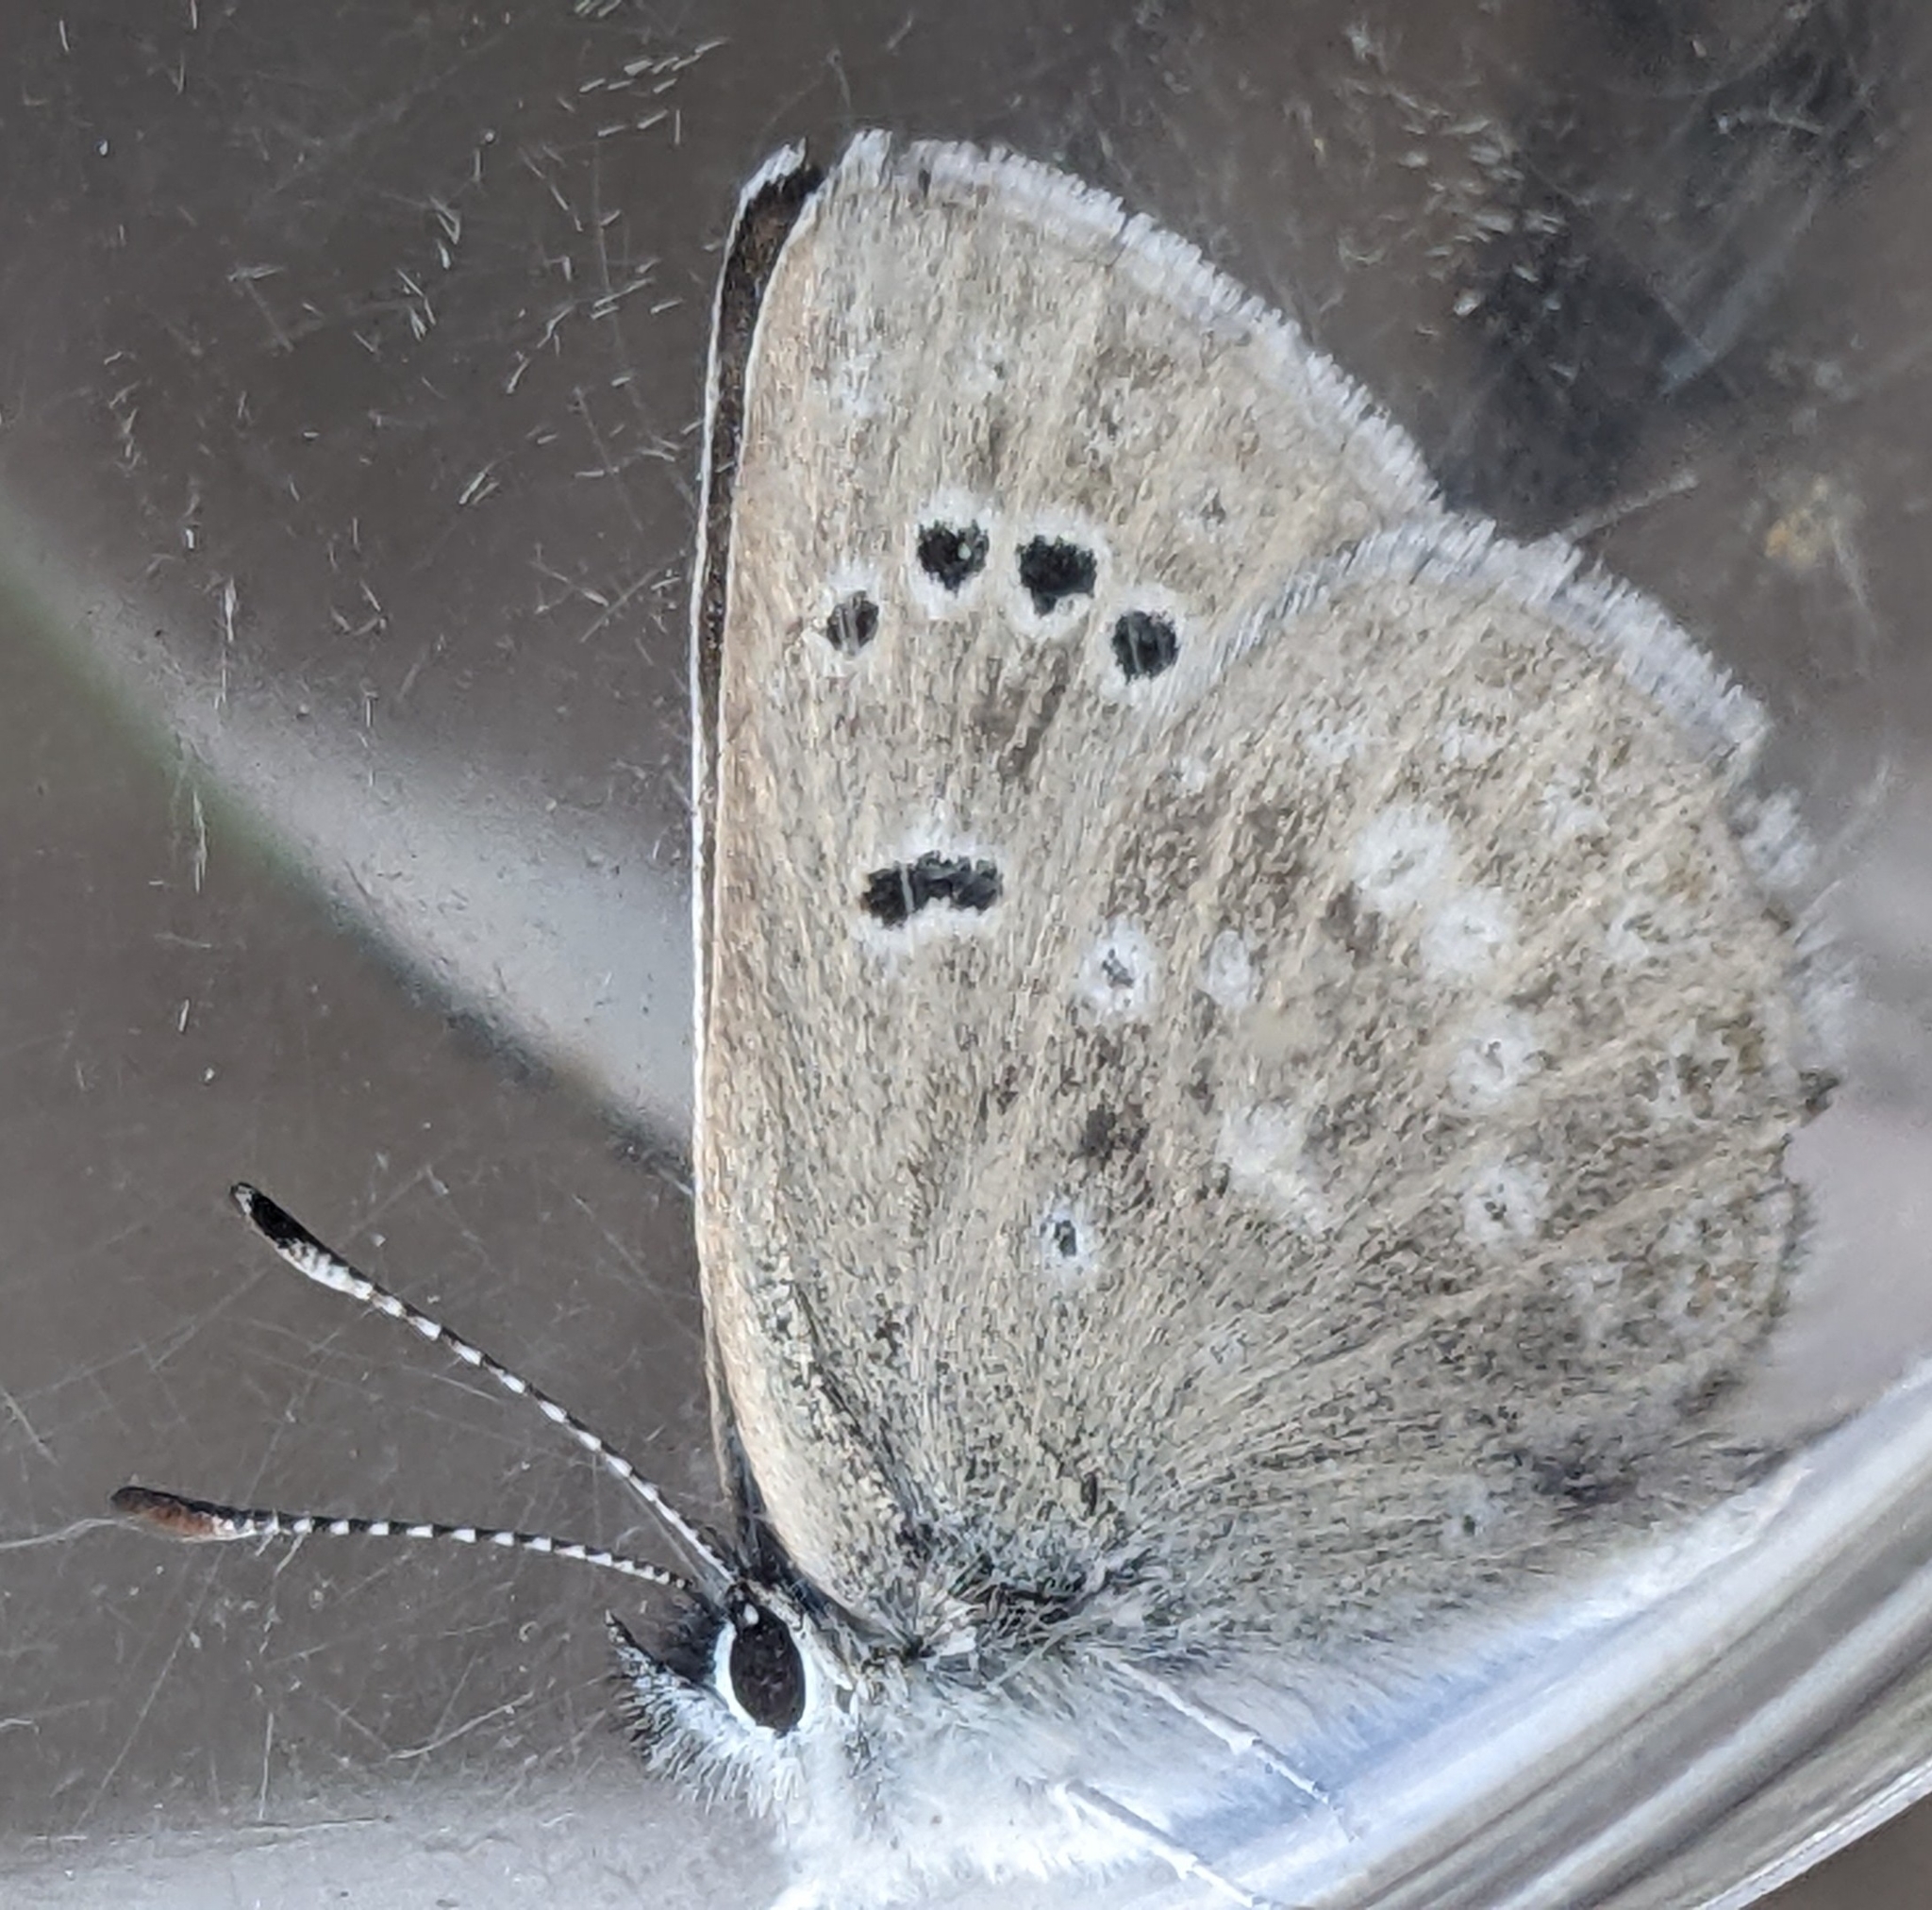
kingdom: Animalia
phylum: Arthropoda
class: Insecta
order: Lepidoptera
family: Lycaenidae
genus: Icaricia
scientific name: Icaricia icarioides
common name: Boisduval's blue
